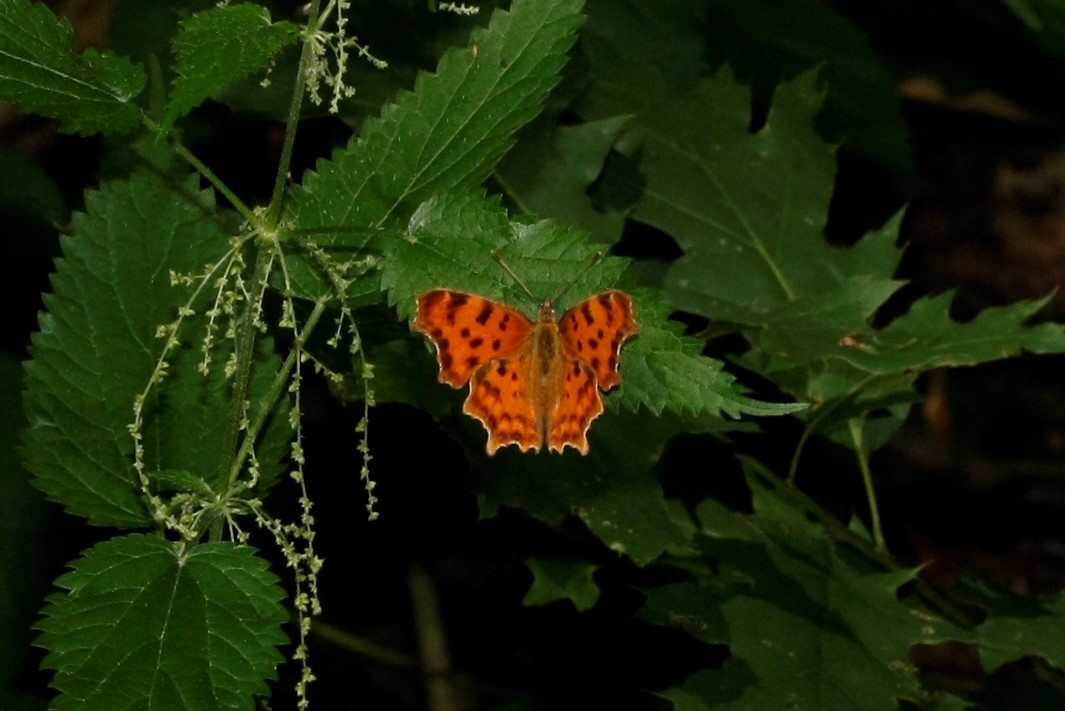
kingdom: Animalia
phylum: Arthropoda
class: Insecta
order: Lepidoptera
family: Nymphalidae
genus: Polygonia
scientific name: Polygonia c-album
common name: Comma
